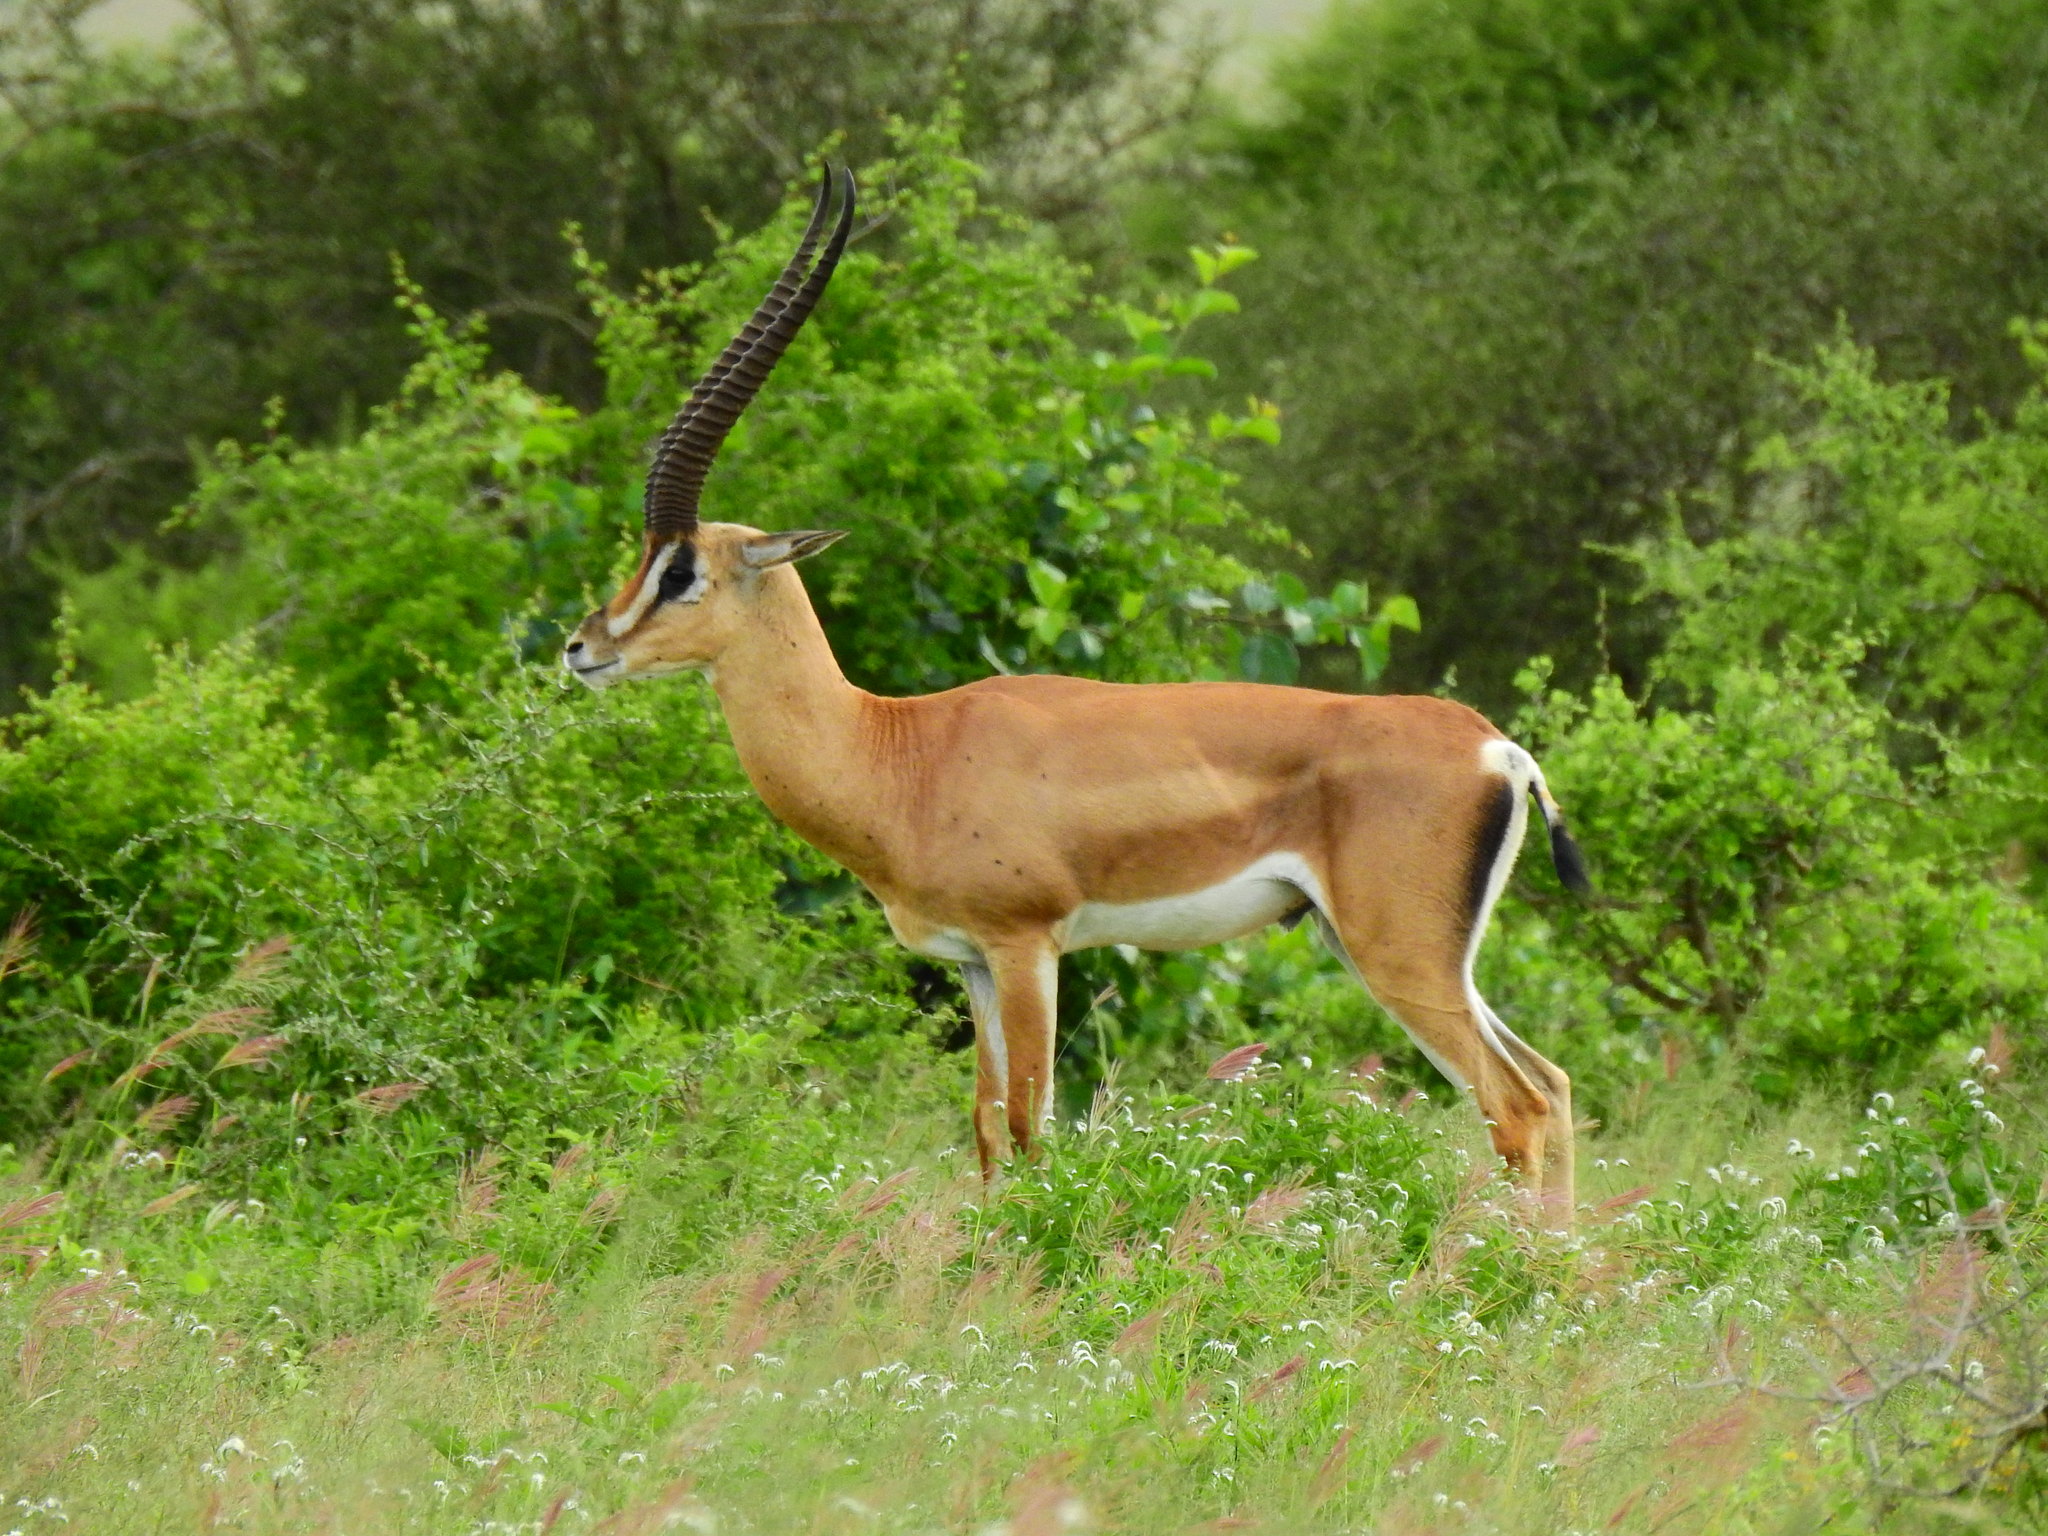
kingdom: Animalia
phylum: Chordata
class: Mammalia
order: Artiodactyla
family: Bovidae
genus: Nanger
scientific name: Nanger granti
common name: Grant's gazelle
